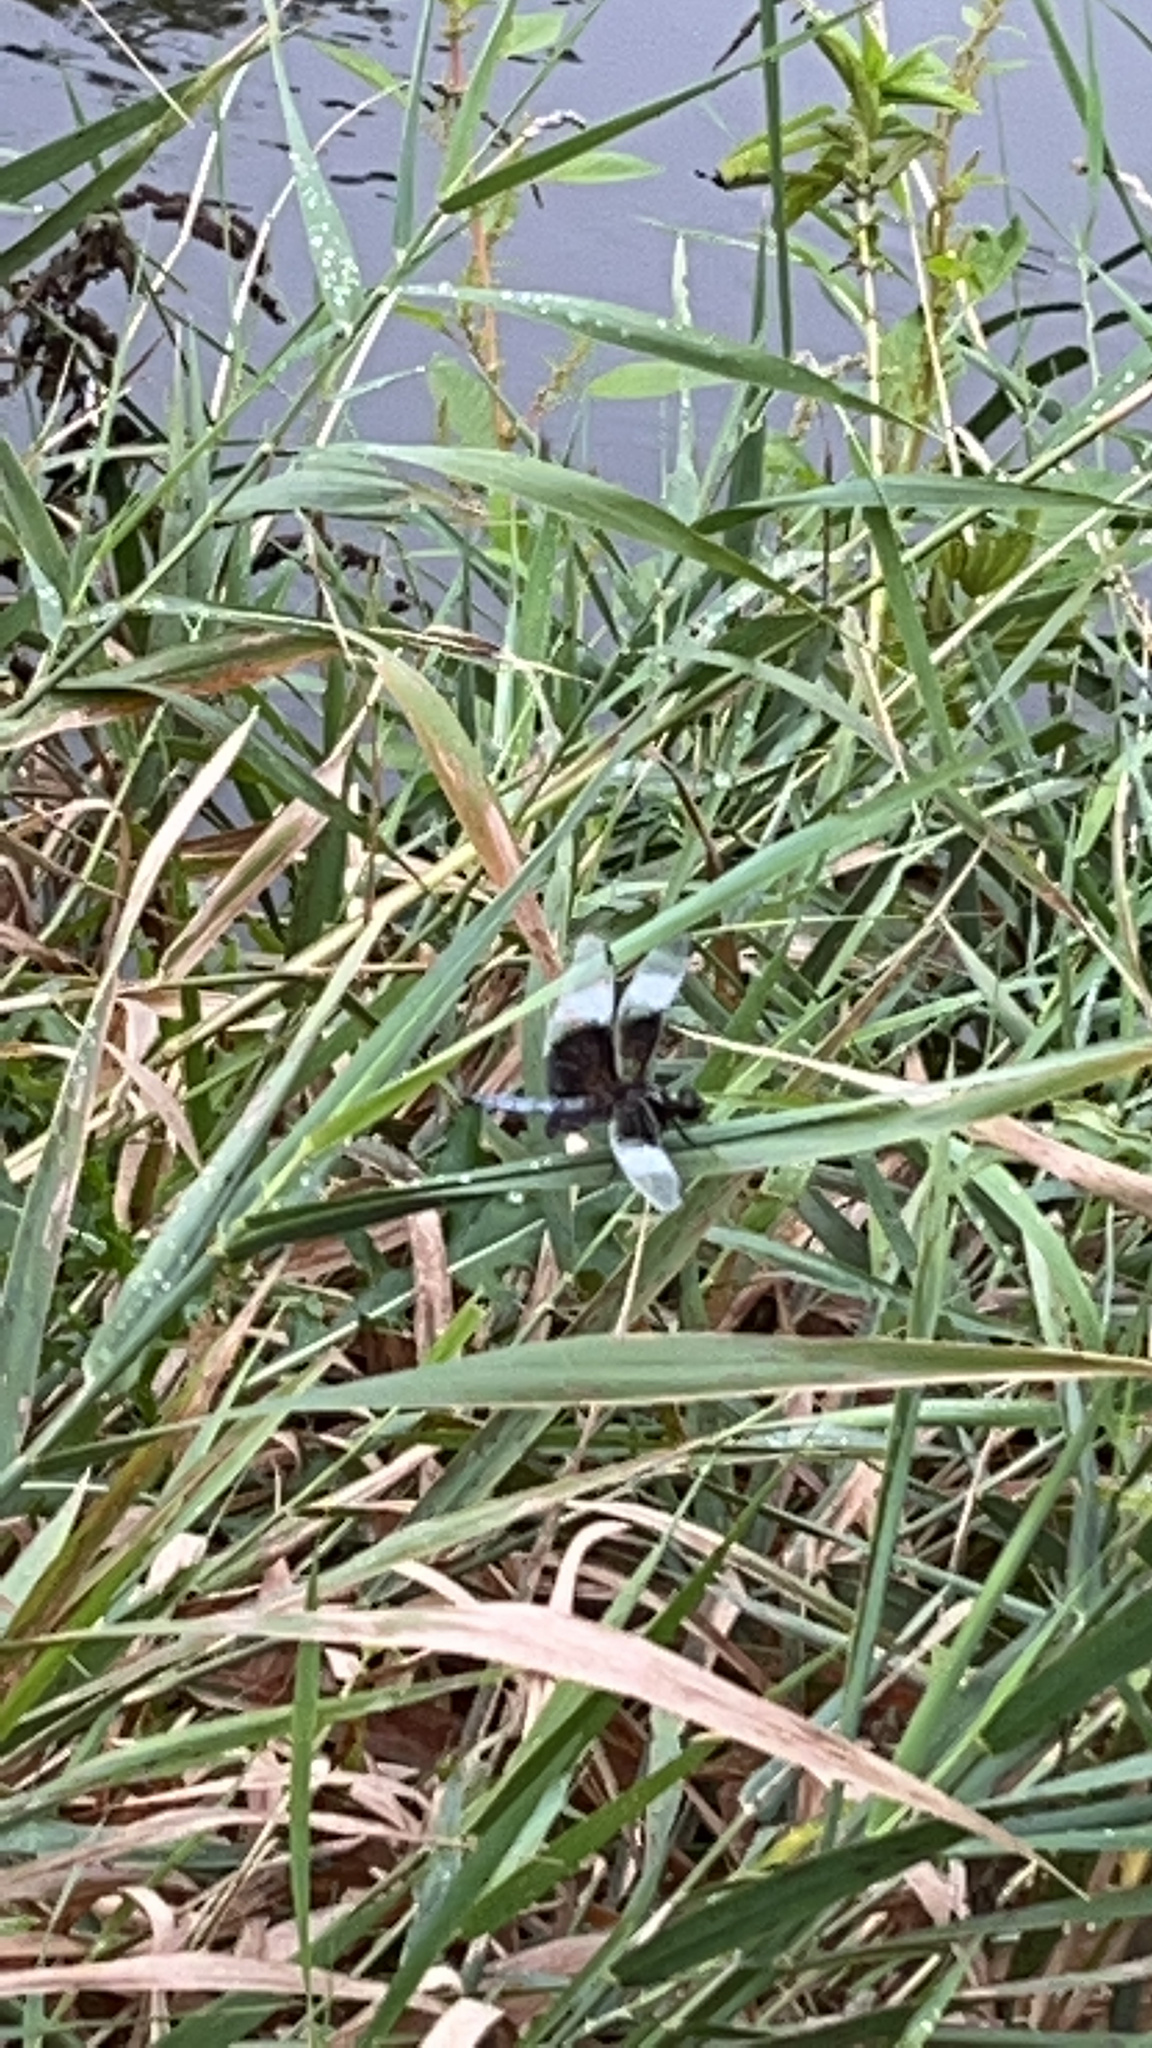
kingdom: Animalia
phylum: Arthropoda
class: Insecta
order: Odonata
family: Libellulidae
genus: Libellula
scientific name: Libellula luctuosa
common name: Widow skimmer
